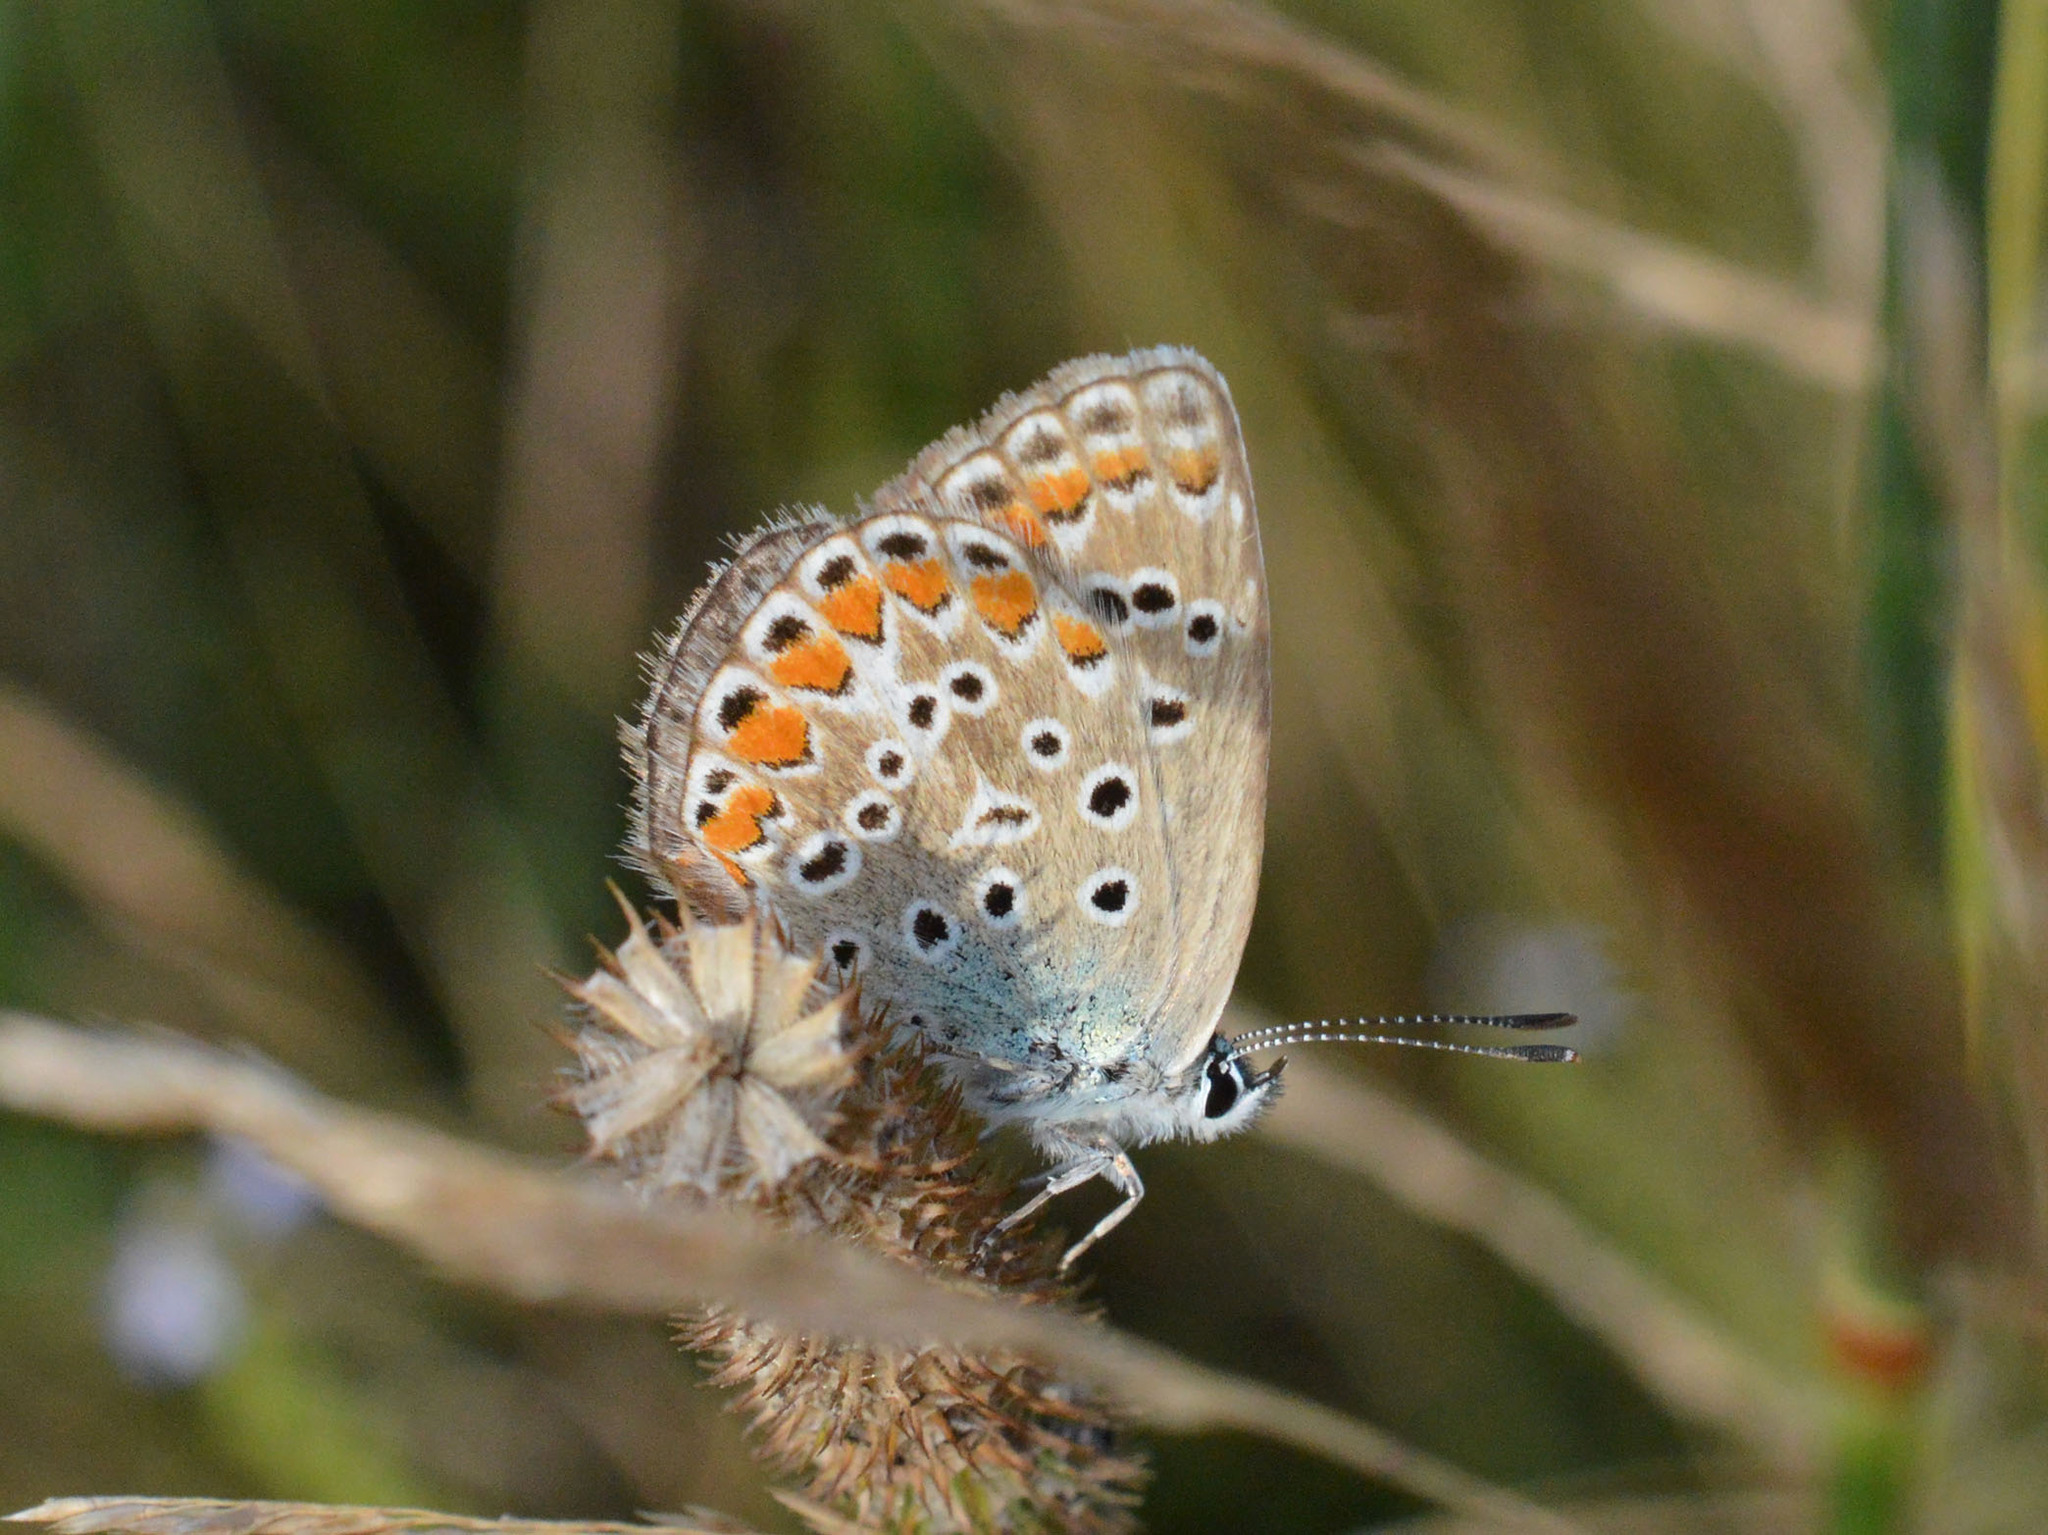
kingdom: Animalia
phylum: Arthropoda
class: Insecta
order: Lepidoptera
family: Lycaenidae
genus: Polyommatus
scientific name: Polyommatus icarus
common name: Common blue
